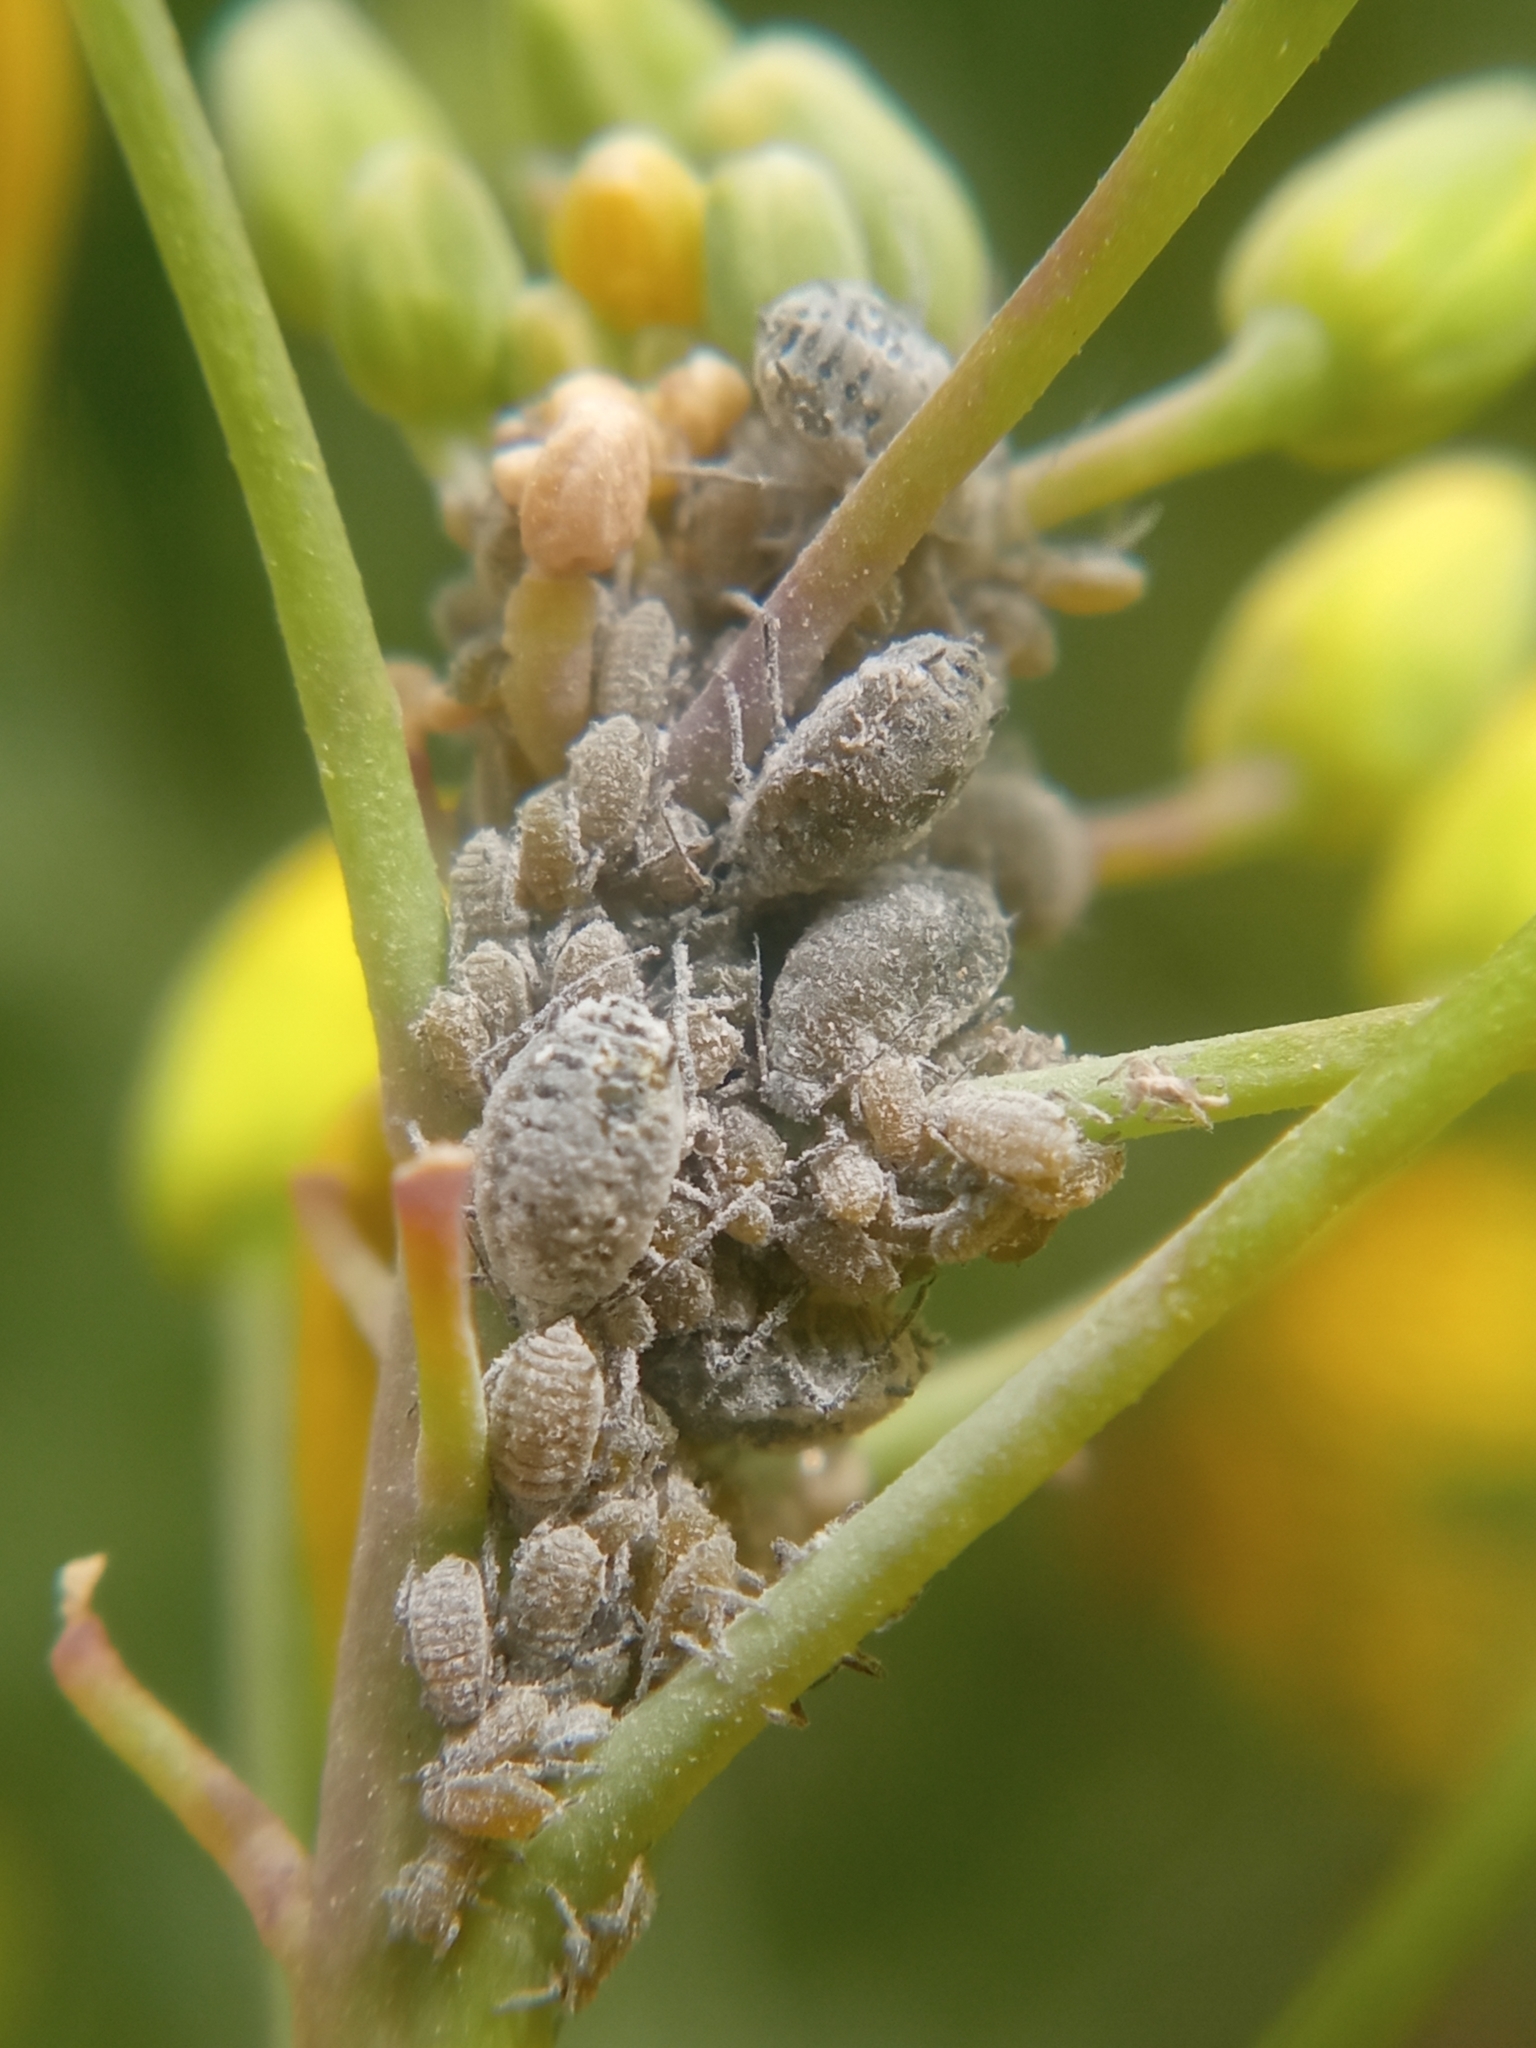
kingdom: Animalia
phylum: Arthropoda
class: Insecta
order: Hemiptera
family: Aphididae
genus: Brevicoryne
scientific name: Brevicoryne brassicae
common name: Cabbage aphid
